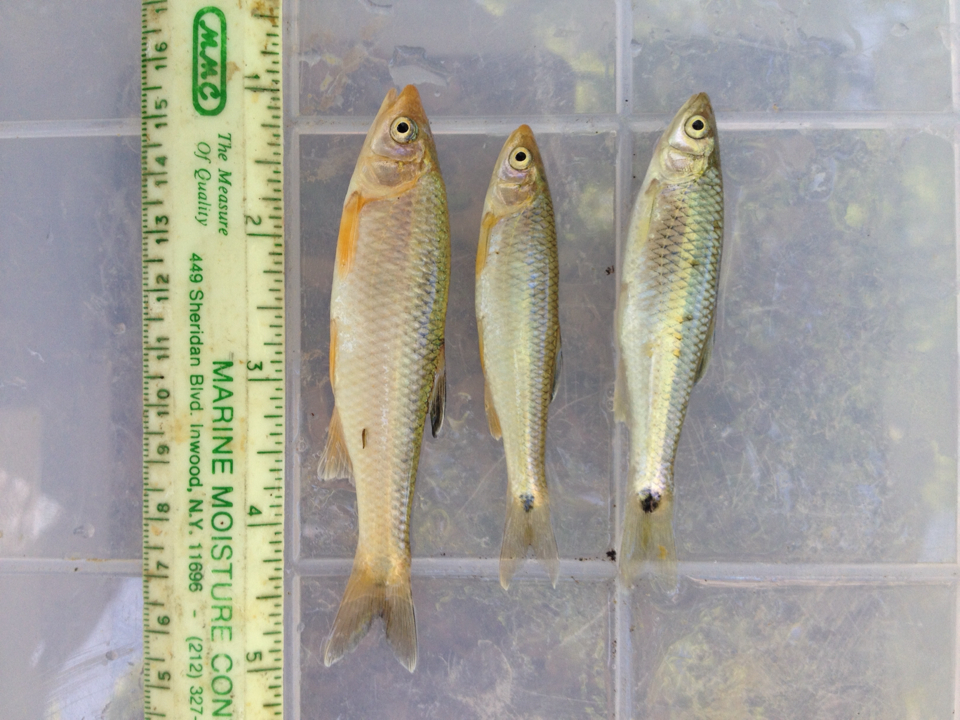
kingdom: Animalia
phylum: Chordata
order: Cypriniformes
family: Cyprinidae
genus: Cyprinella
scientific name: Cyprinella venusta
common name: Blacktail shiner
